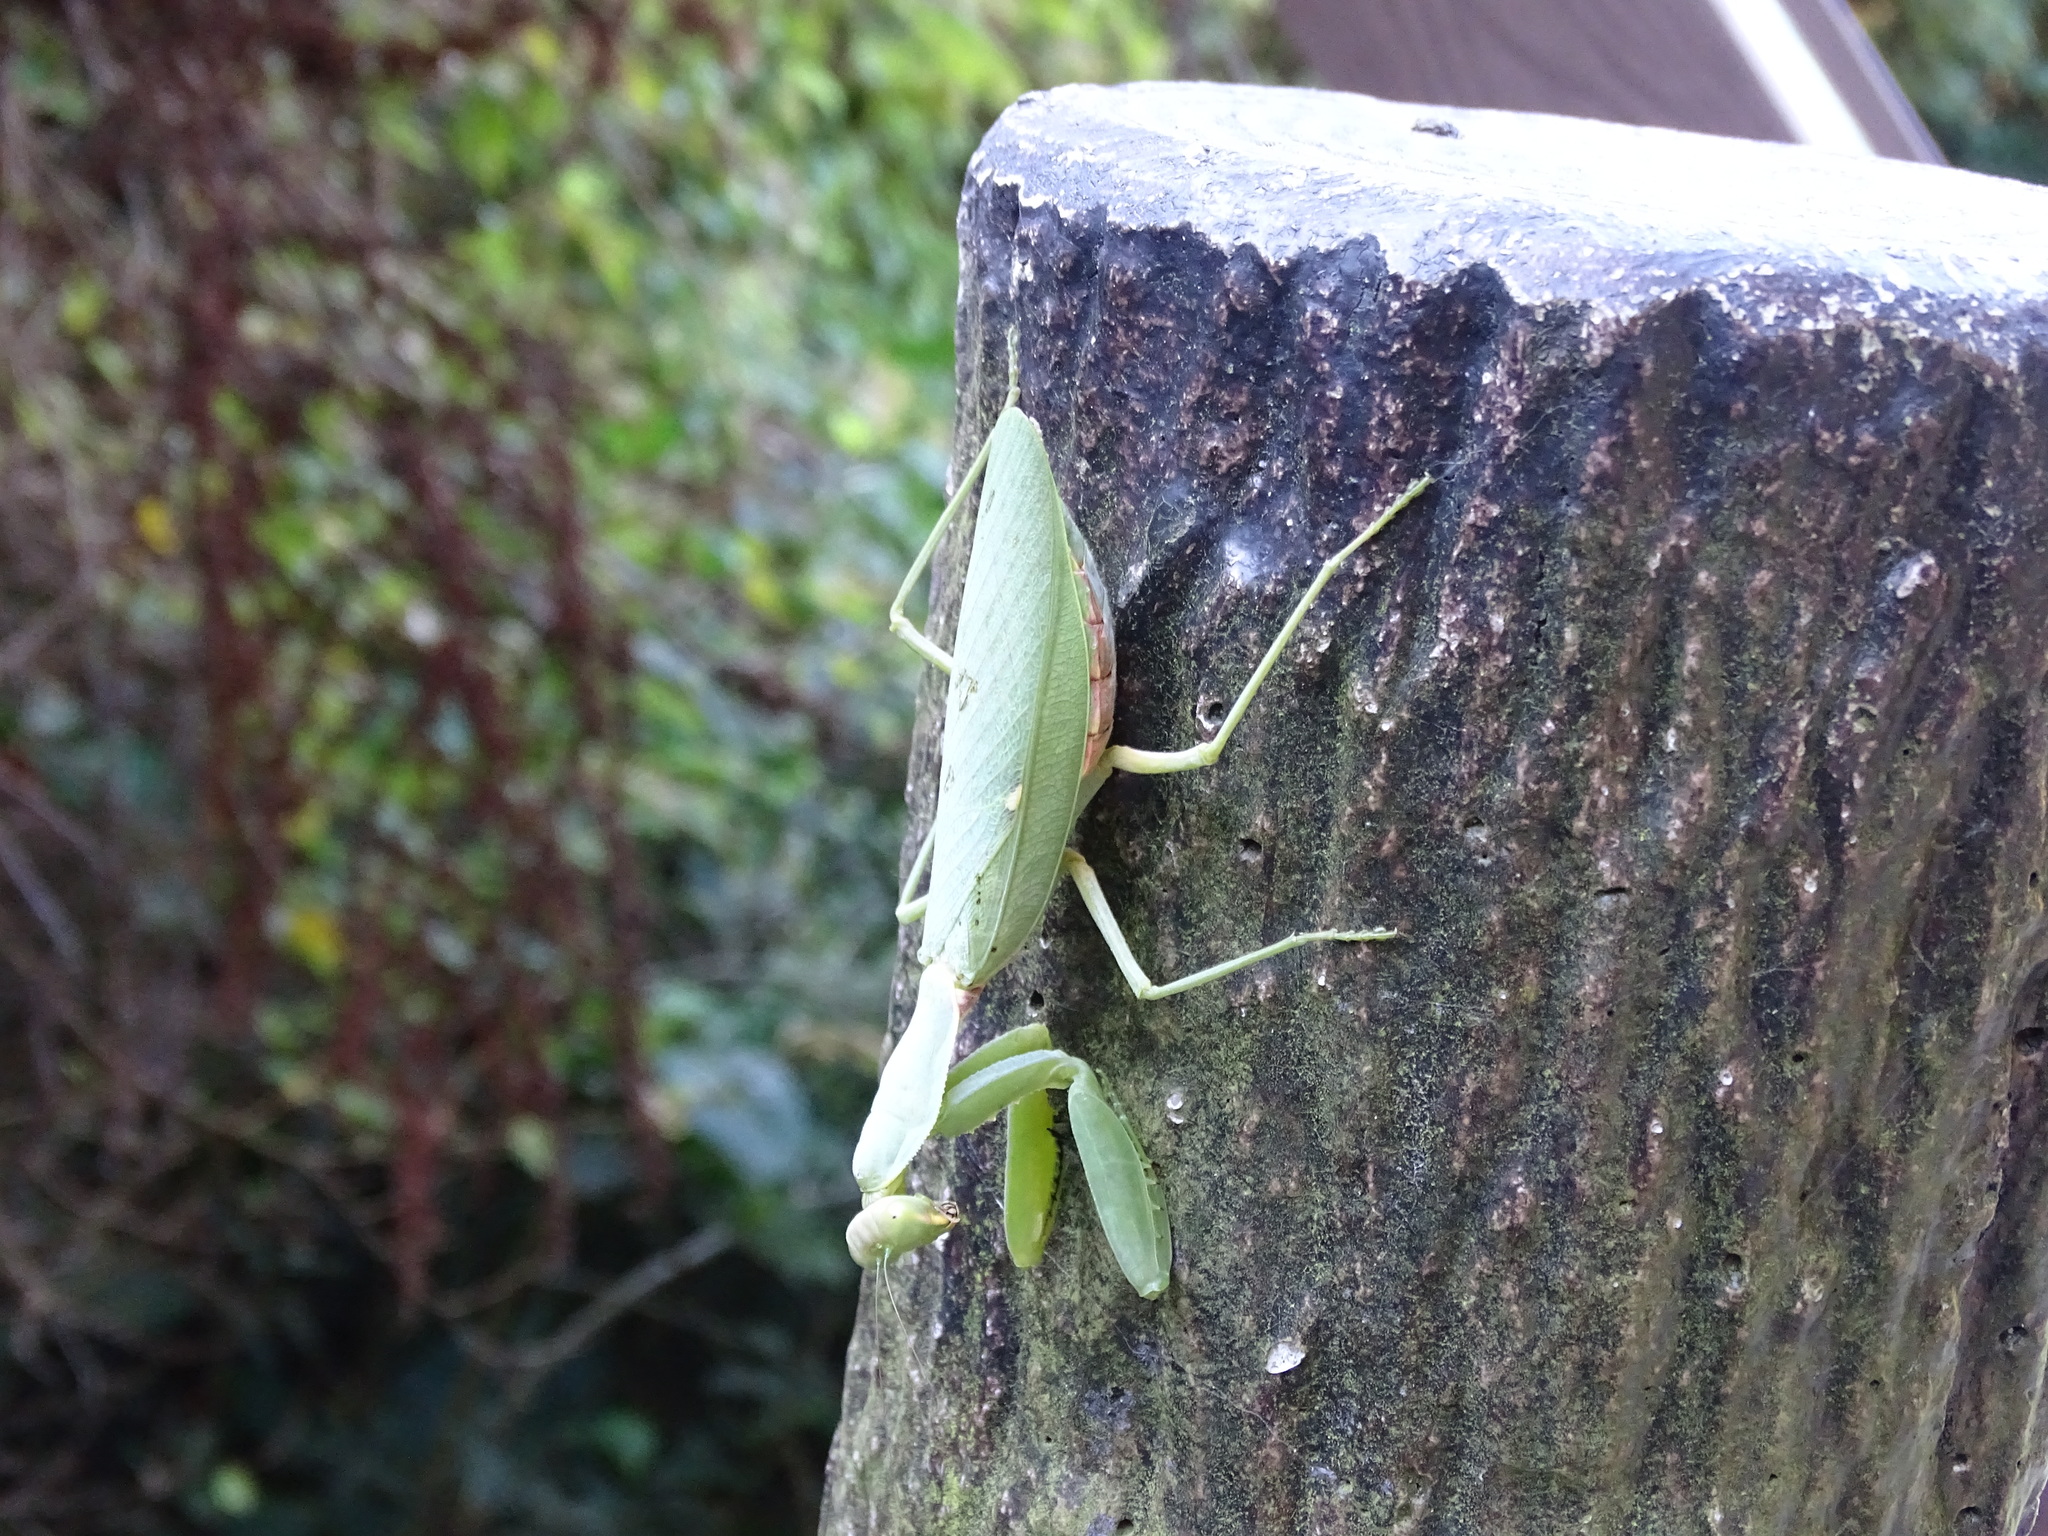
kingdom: Animalia
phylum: Arthropoda
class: Insecta
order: Mantodea
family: Mantidae
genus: Hierodula
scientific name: Hierodula patellifera
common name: Asian mantis
